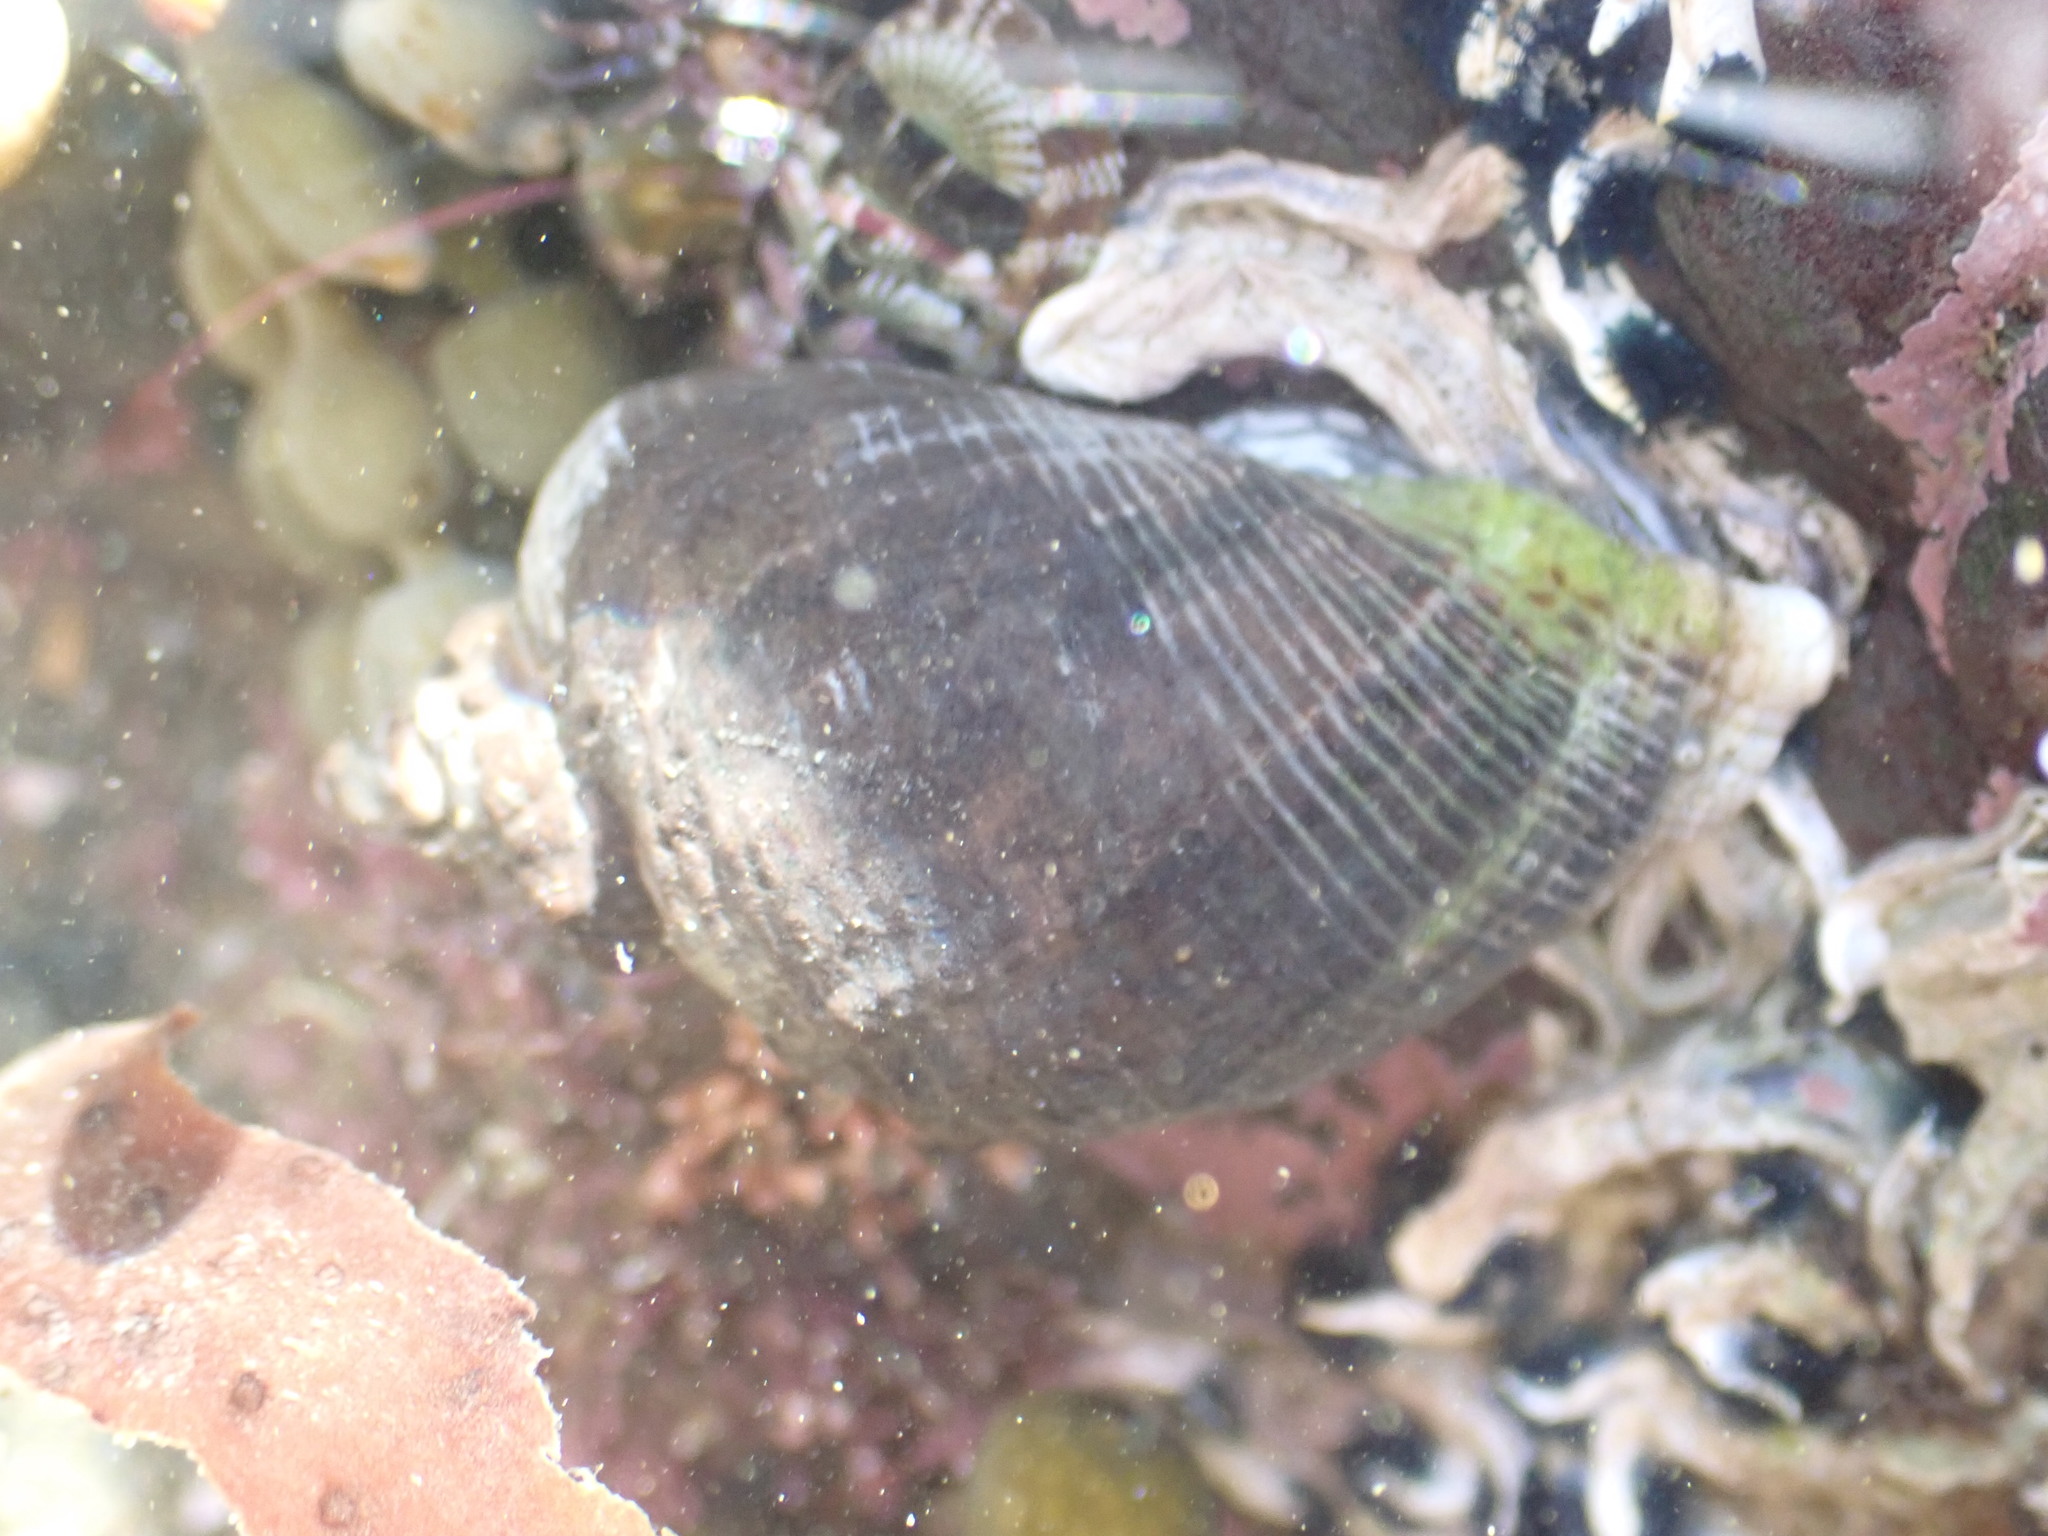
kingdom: Animalia
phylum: Mollusca
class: Gastropoda
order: Neogastropoda
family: Muricidae
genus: Haustrum
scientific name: Haustrum haustorium
